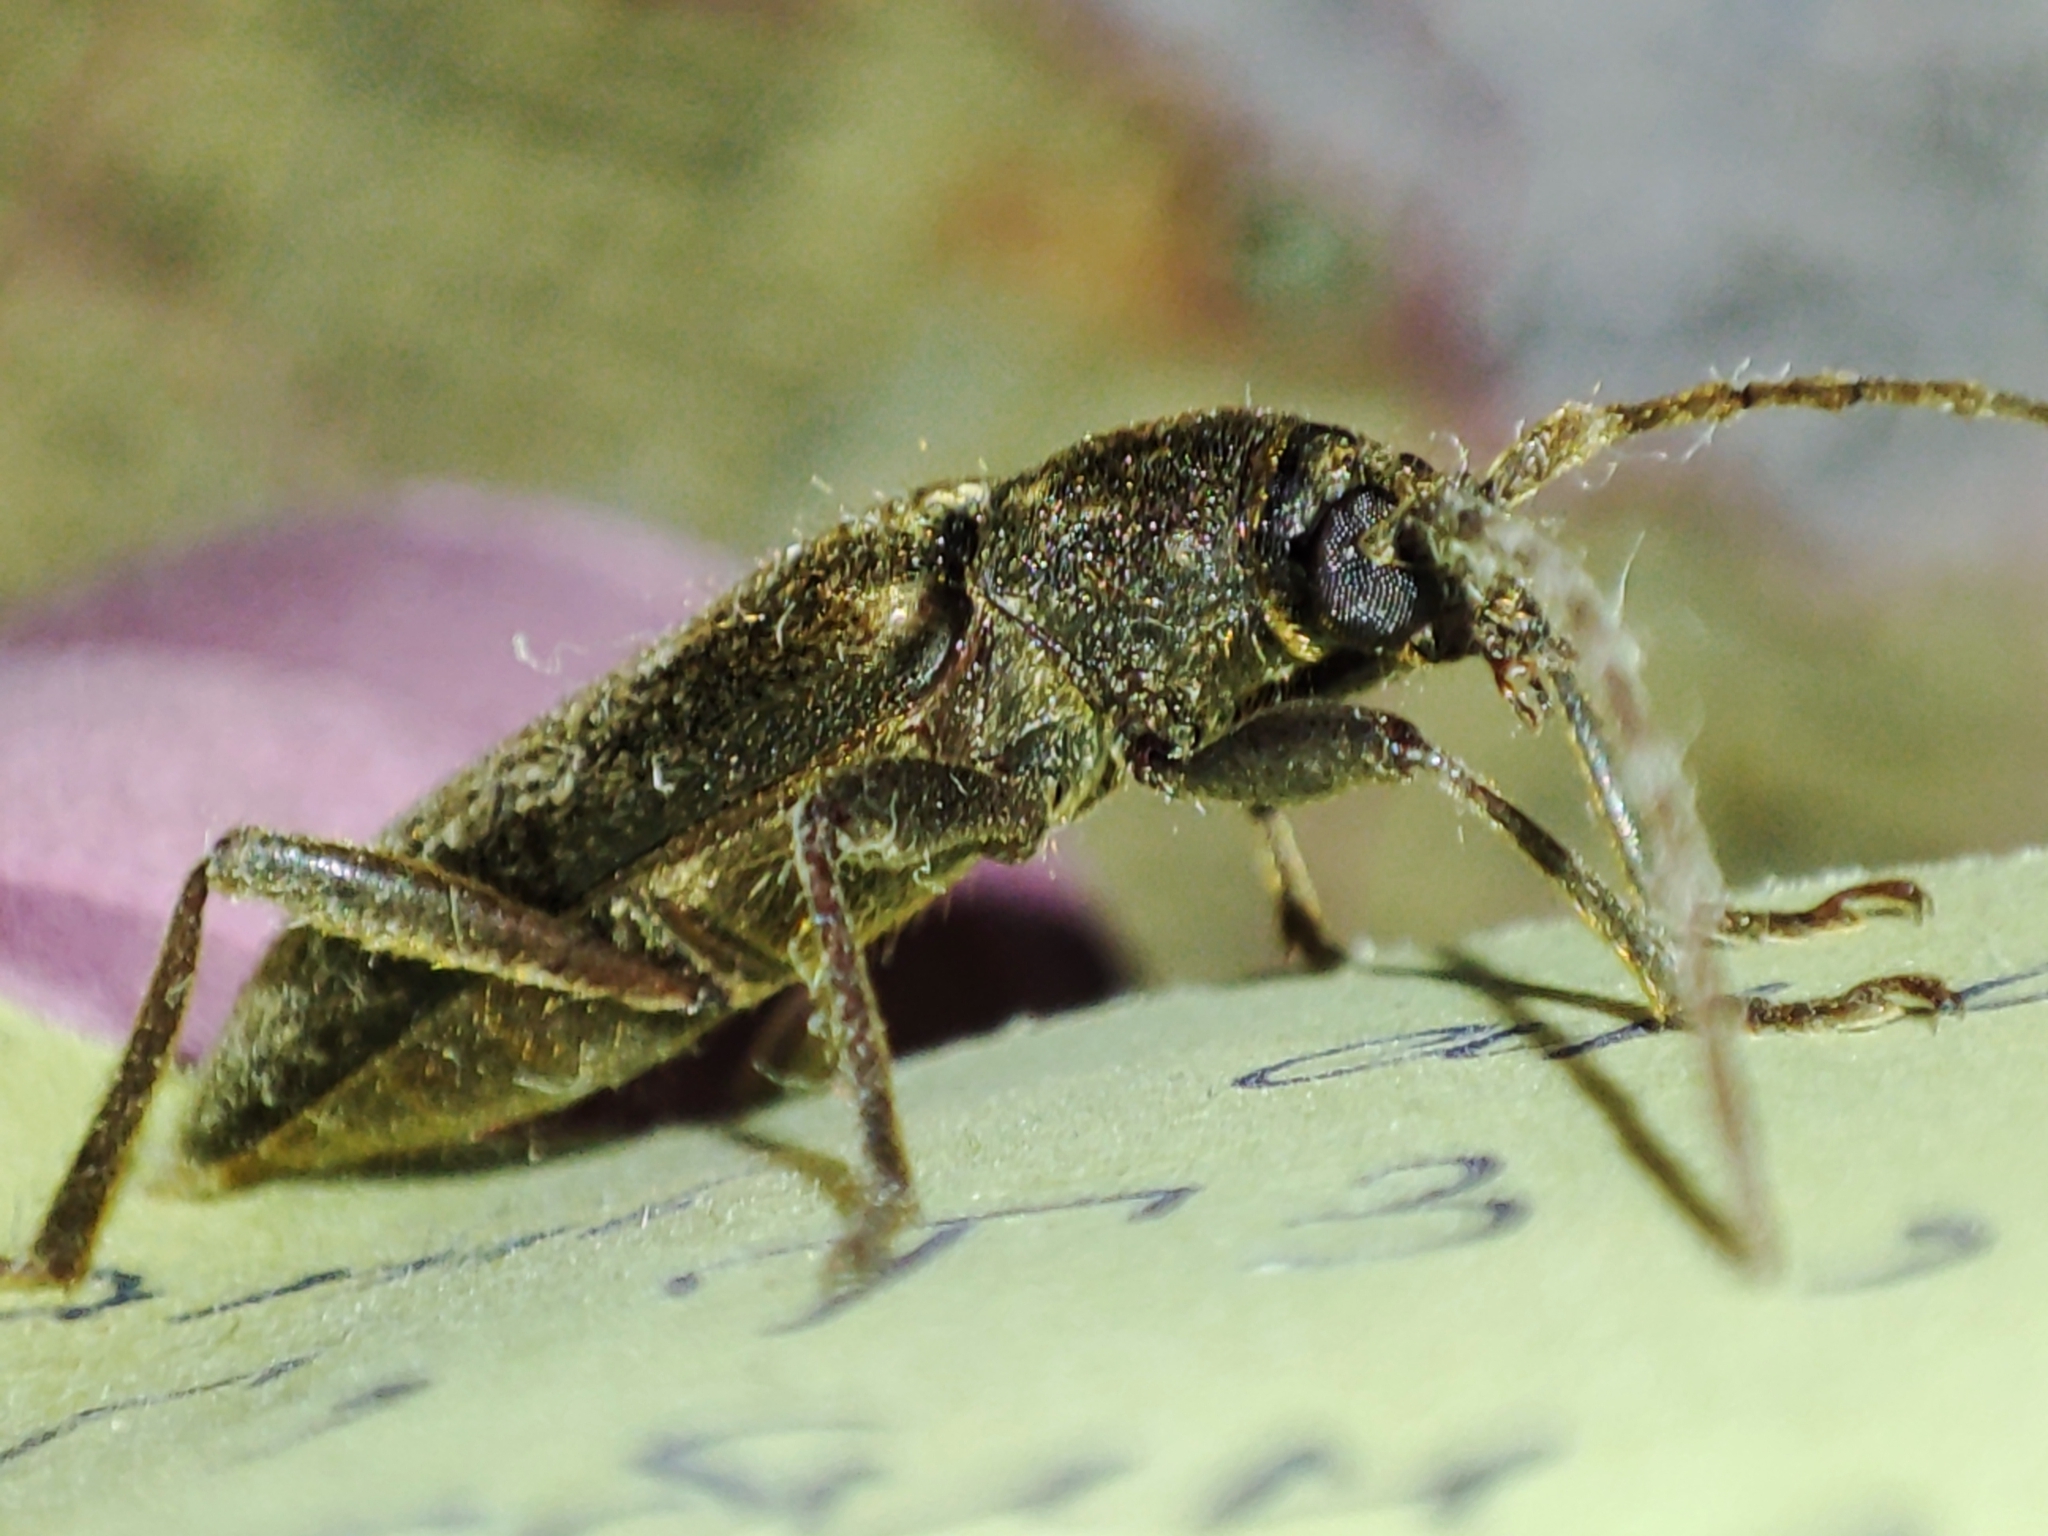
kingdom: Animalia
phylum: Arthropoda
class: Insecta
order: Coleoptera
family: Cerambycidae
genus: Trichoferus
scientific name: Trichoferus campestris
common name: Velvet long horned beetle
